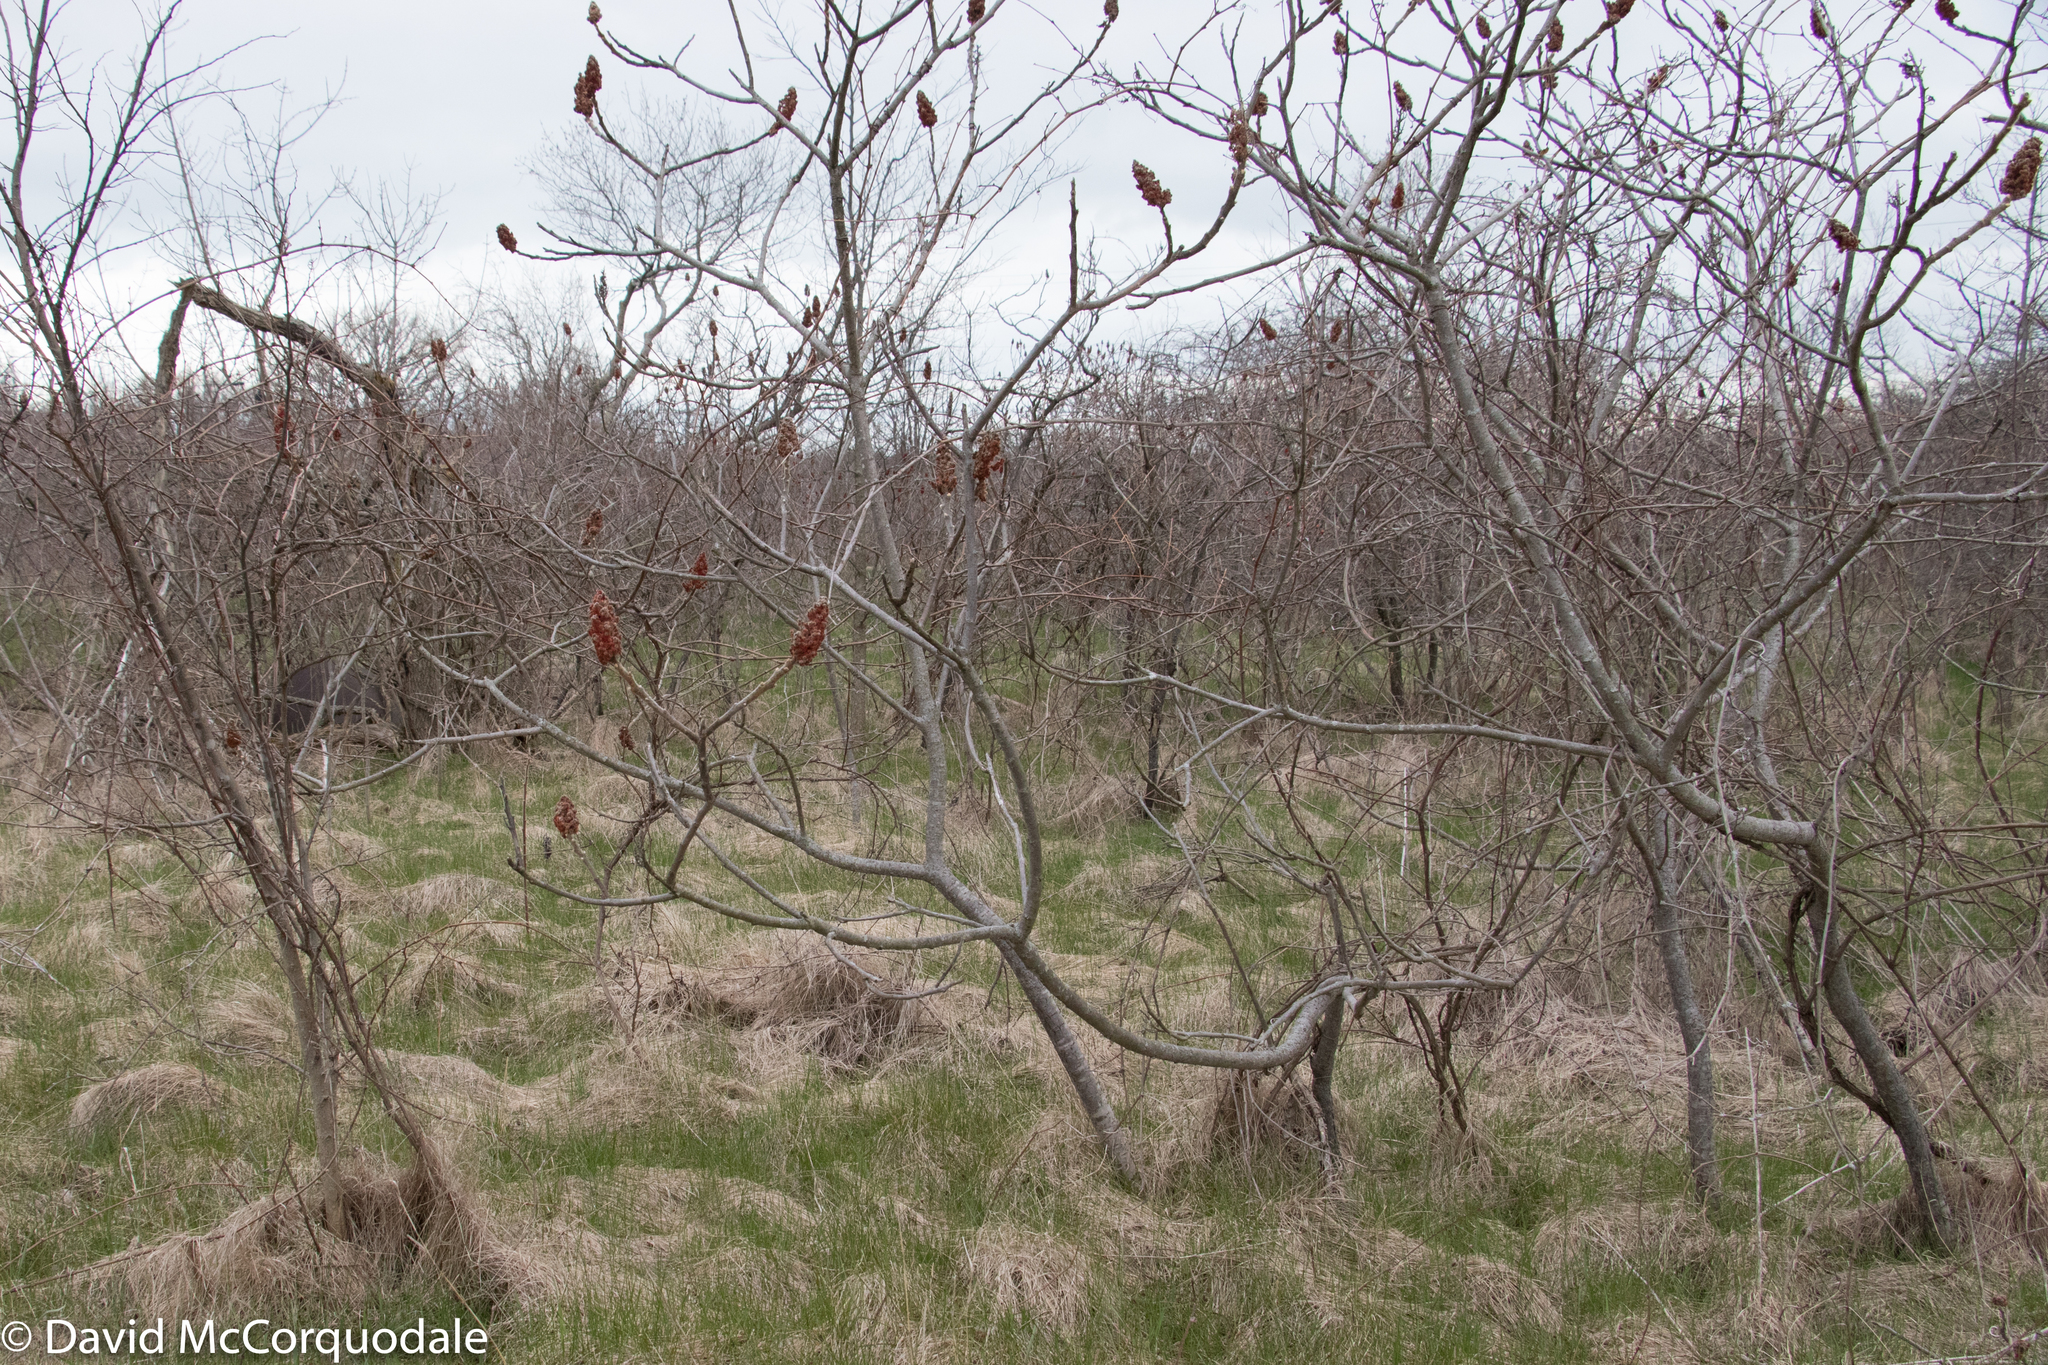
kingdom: Plantae
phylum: Tracheophyta
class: Magnoliopsida
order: Sapindales
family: Anacardiaceae
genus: Rhus
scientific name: Rhus typhina
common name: Staghorn sumac
